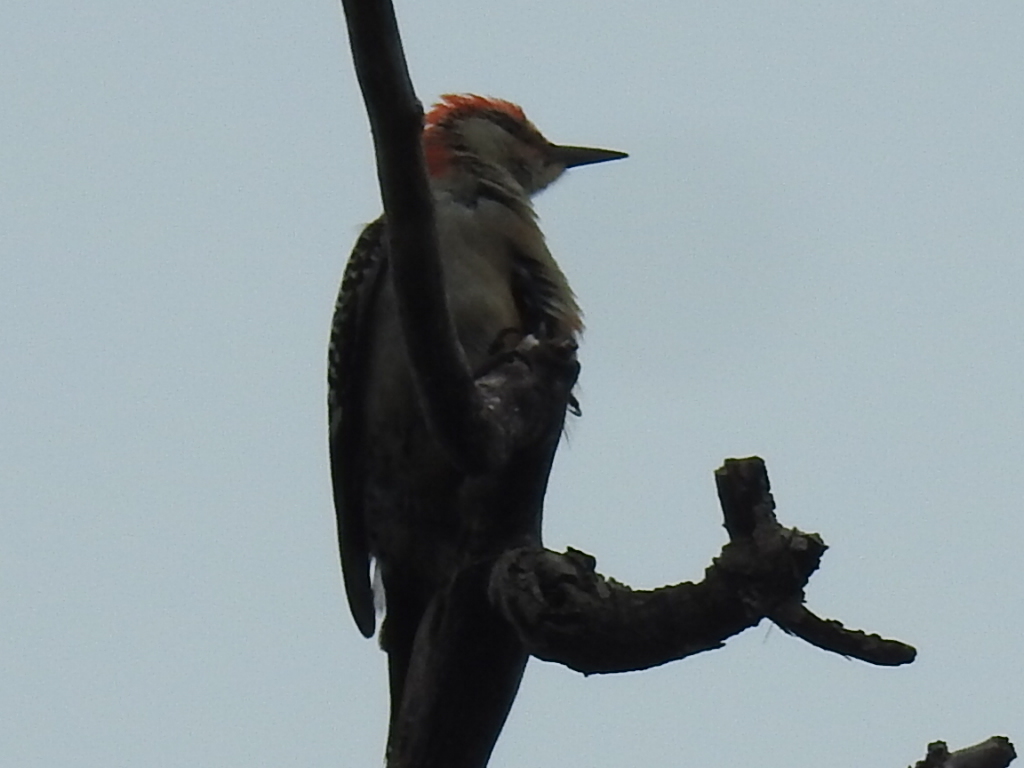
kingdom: Animalia
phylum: Chordata
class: Aves
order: Piciformes
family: Picidae
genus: Melanerpes
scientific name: Melanerpes carolinus
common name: Red-bellied woodpecker
